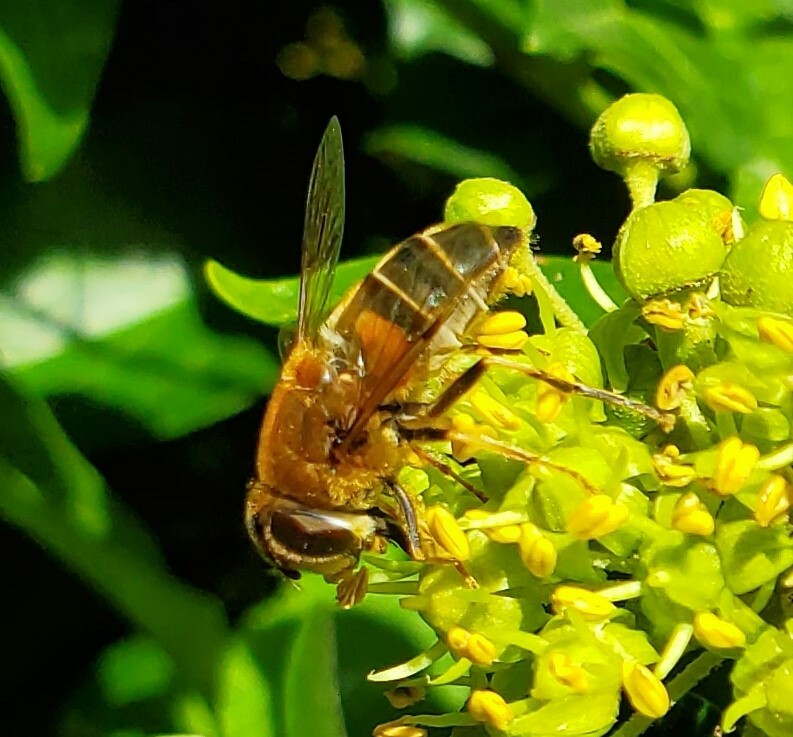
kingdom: Animalia
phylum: Arthropoda
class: Insecta
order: Diptera
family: Syrphidae
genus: Eristalis
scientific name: Eristalis pertinax
